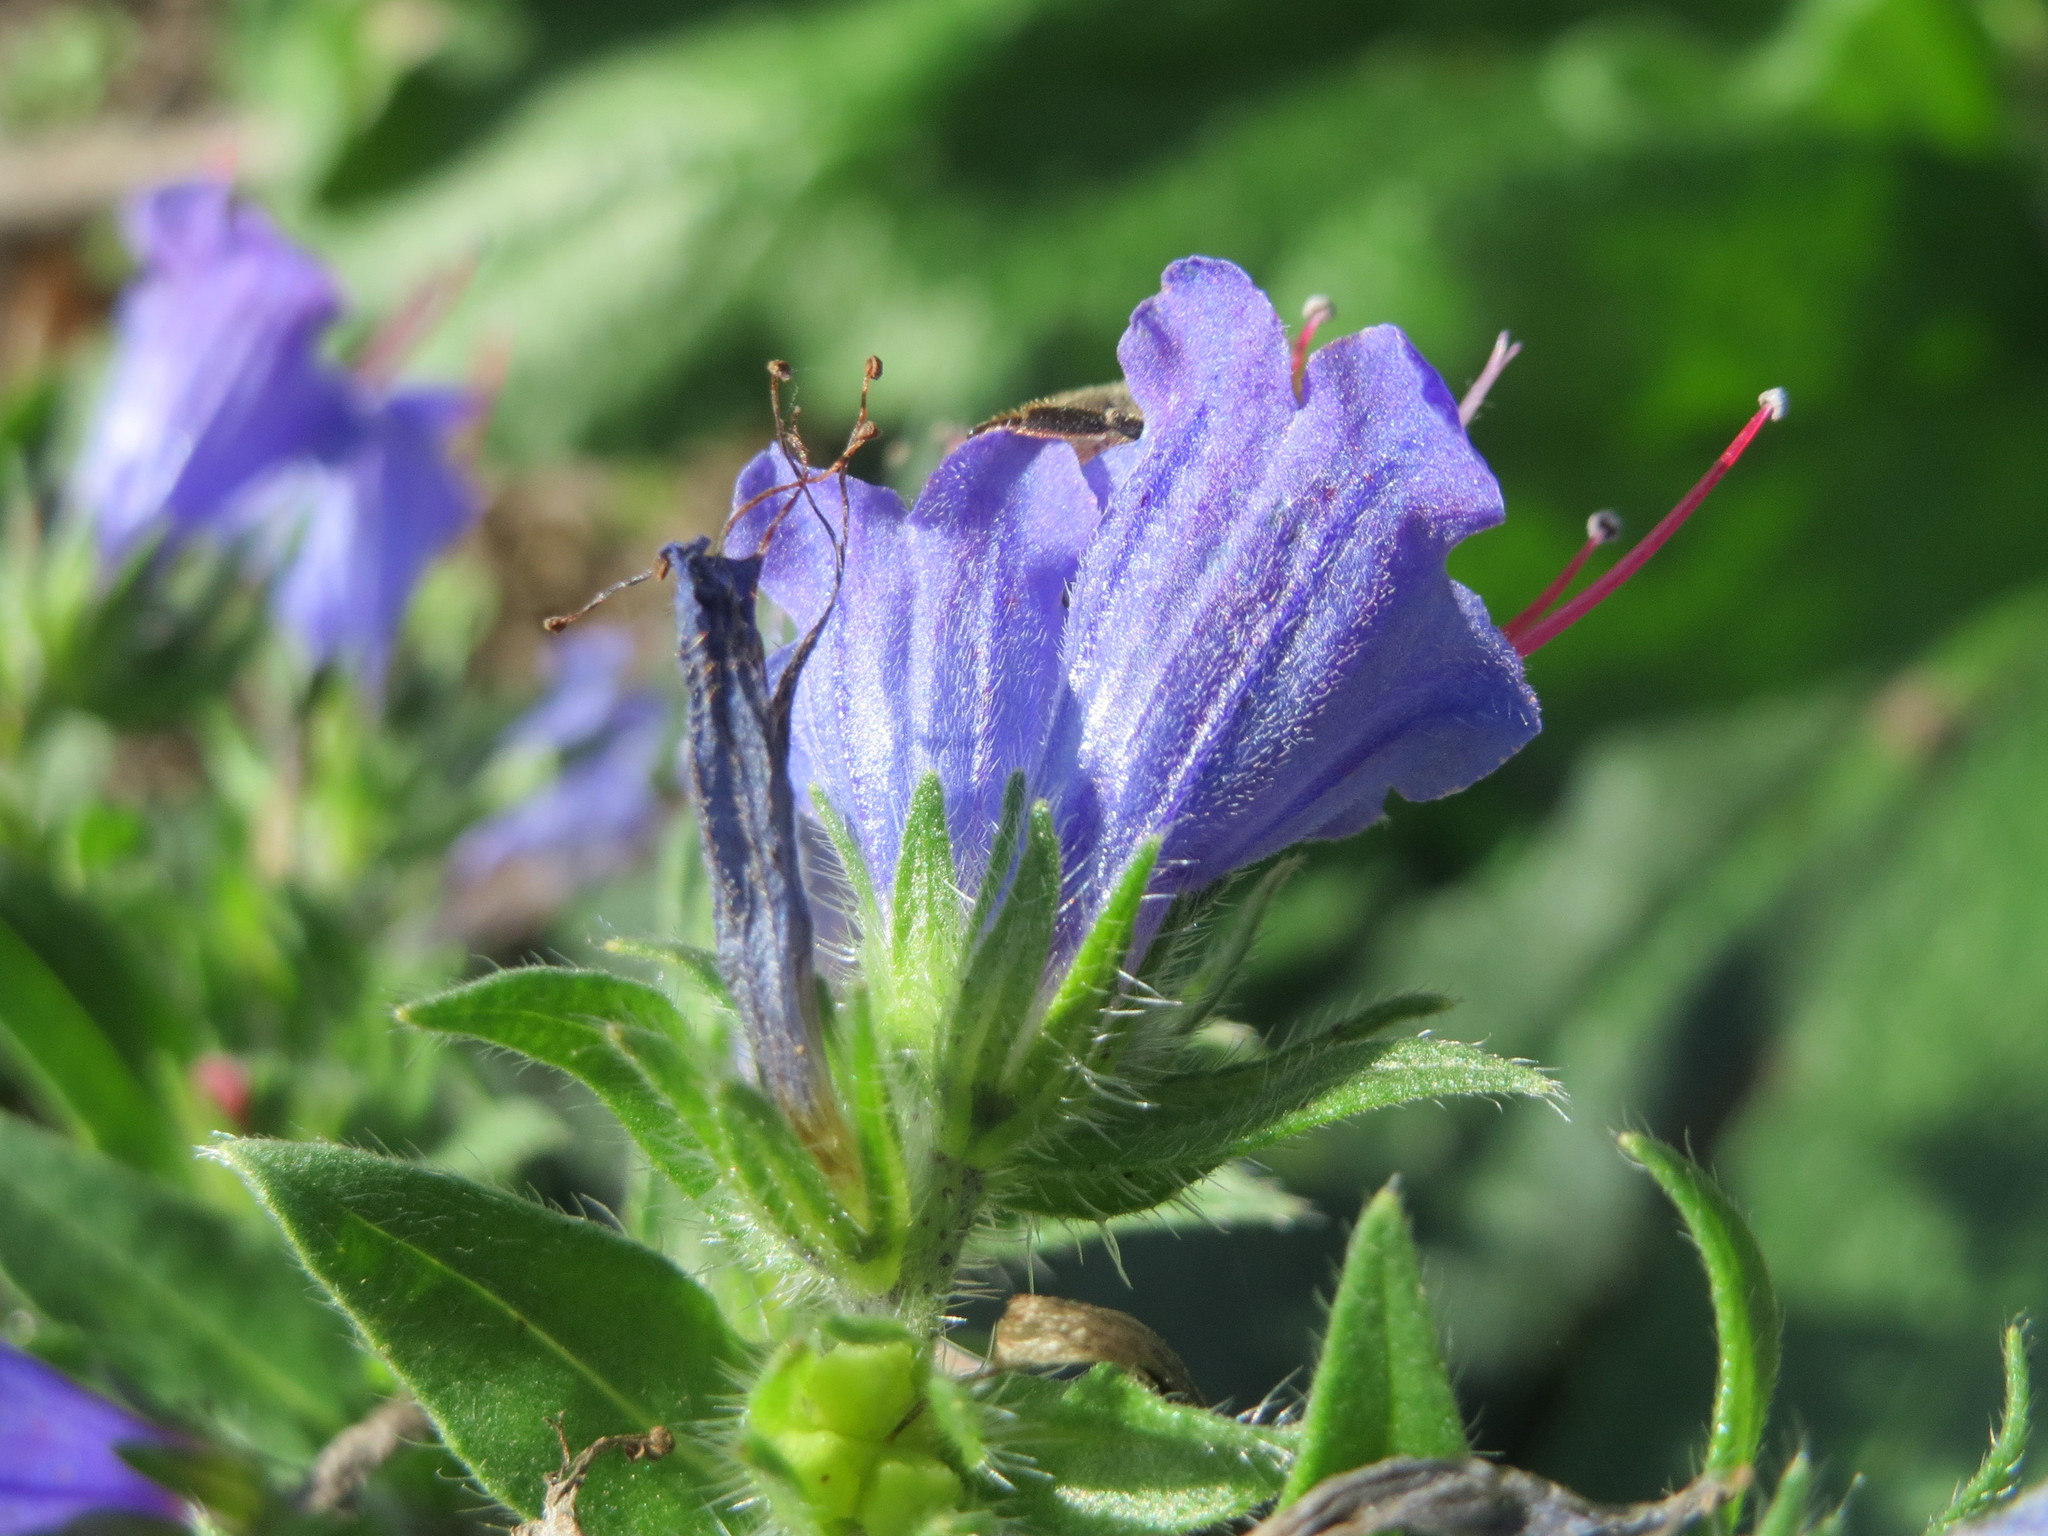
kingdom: Plantae
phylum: Tracheophyta
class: Magnoliopsida
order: Boraginales
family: Boraginaceae
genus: Echium
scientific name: Echium vulgare
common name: Common viper's bugloss
